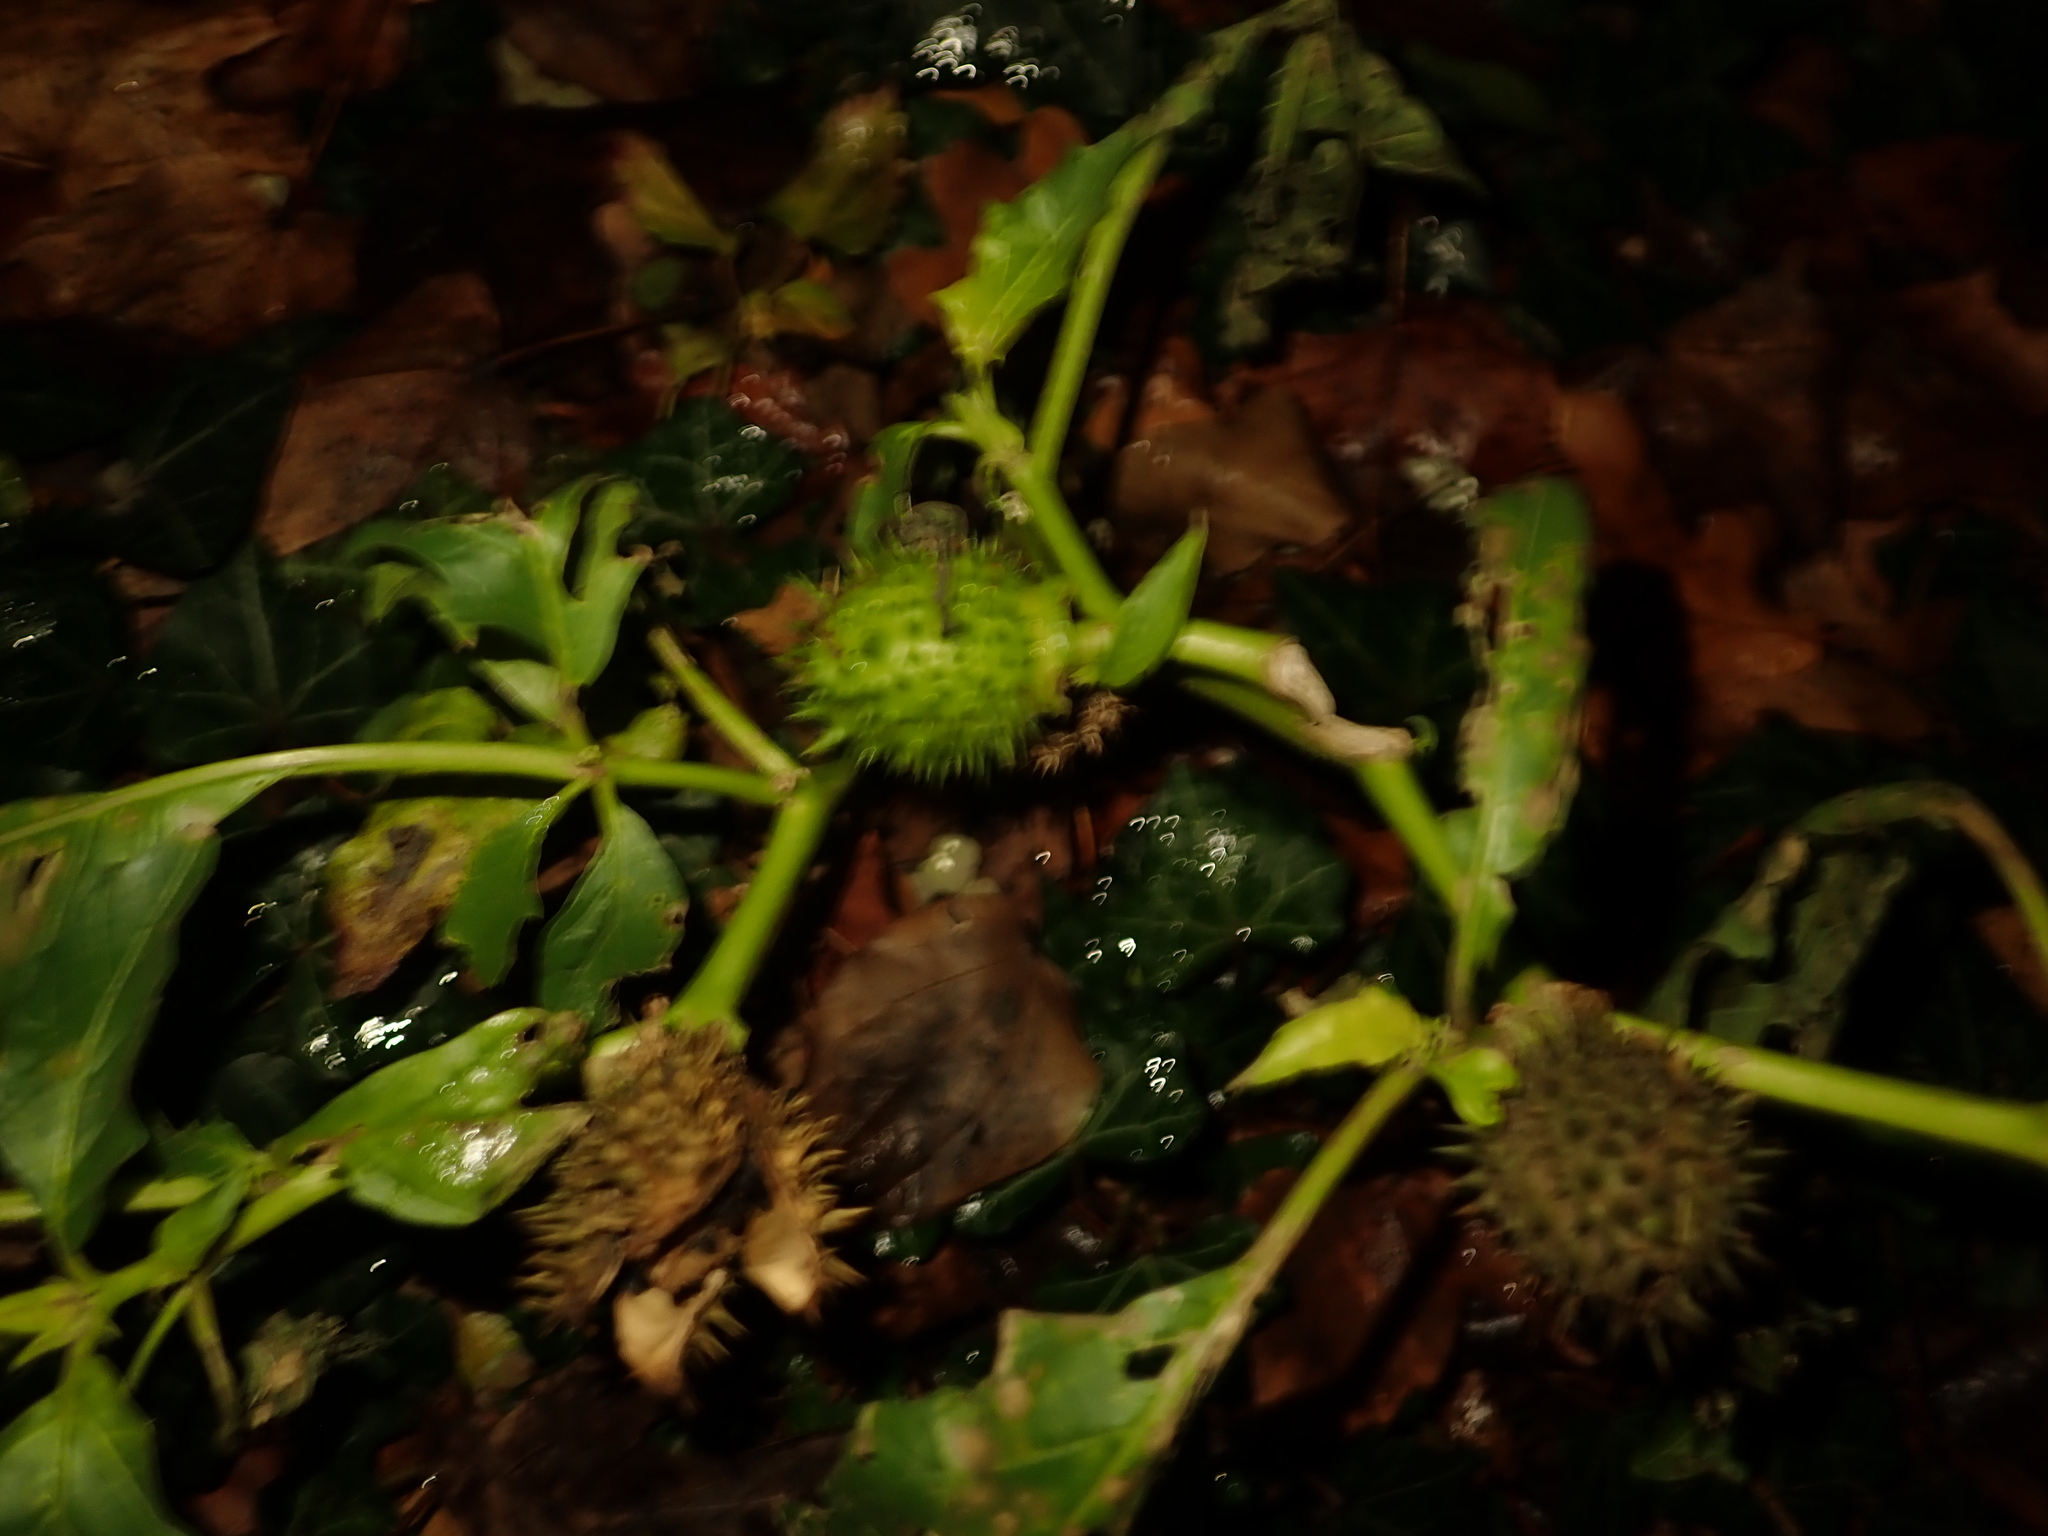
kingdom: Plantae
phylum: Tracheophyta
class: Magnoliopsida
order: Solanales
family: Solanaceae
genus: Datura
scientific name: Datura stramonium
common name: Thorn-apple
